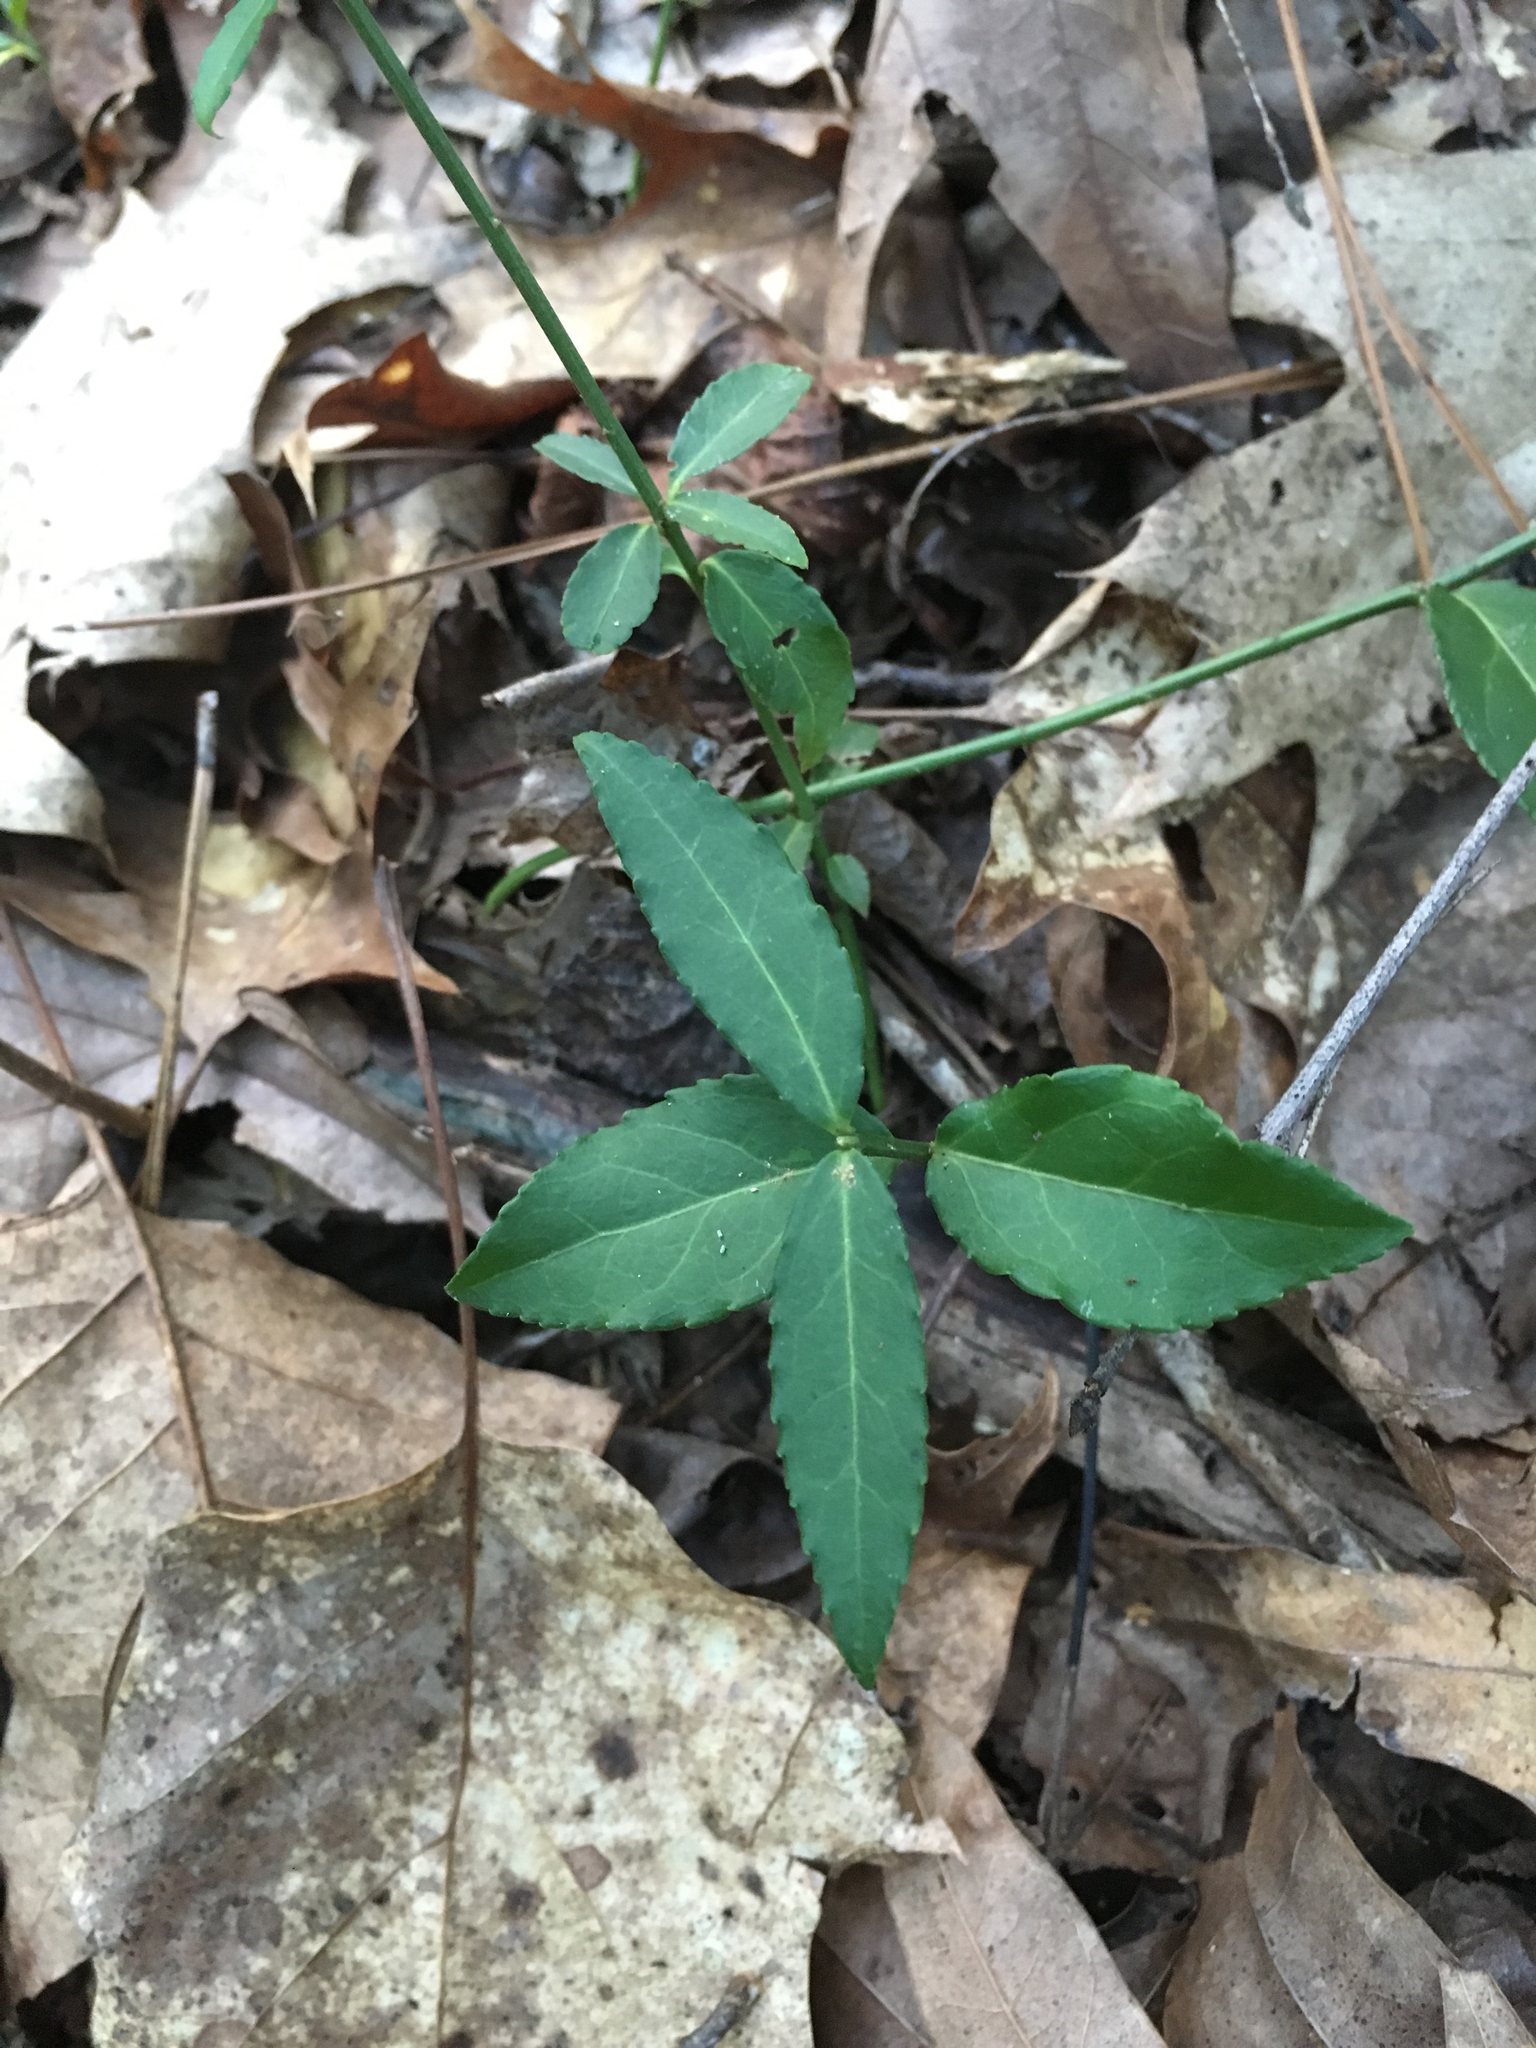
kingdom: Plantae
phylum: Tracheophyta
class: Magnoliopsida
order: Celastrales
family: Celastraceae
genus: Euonymus
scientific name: Euonymus americanus
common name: Bursting-heart
